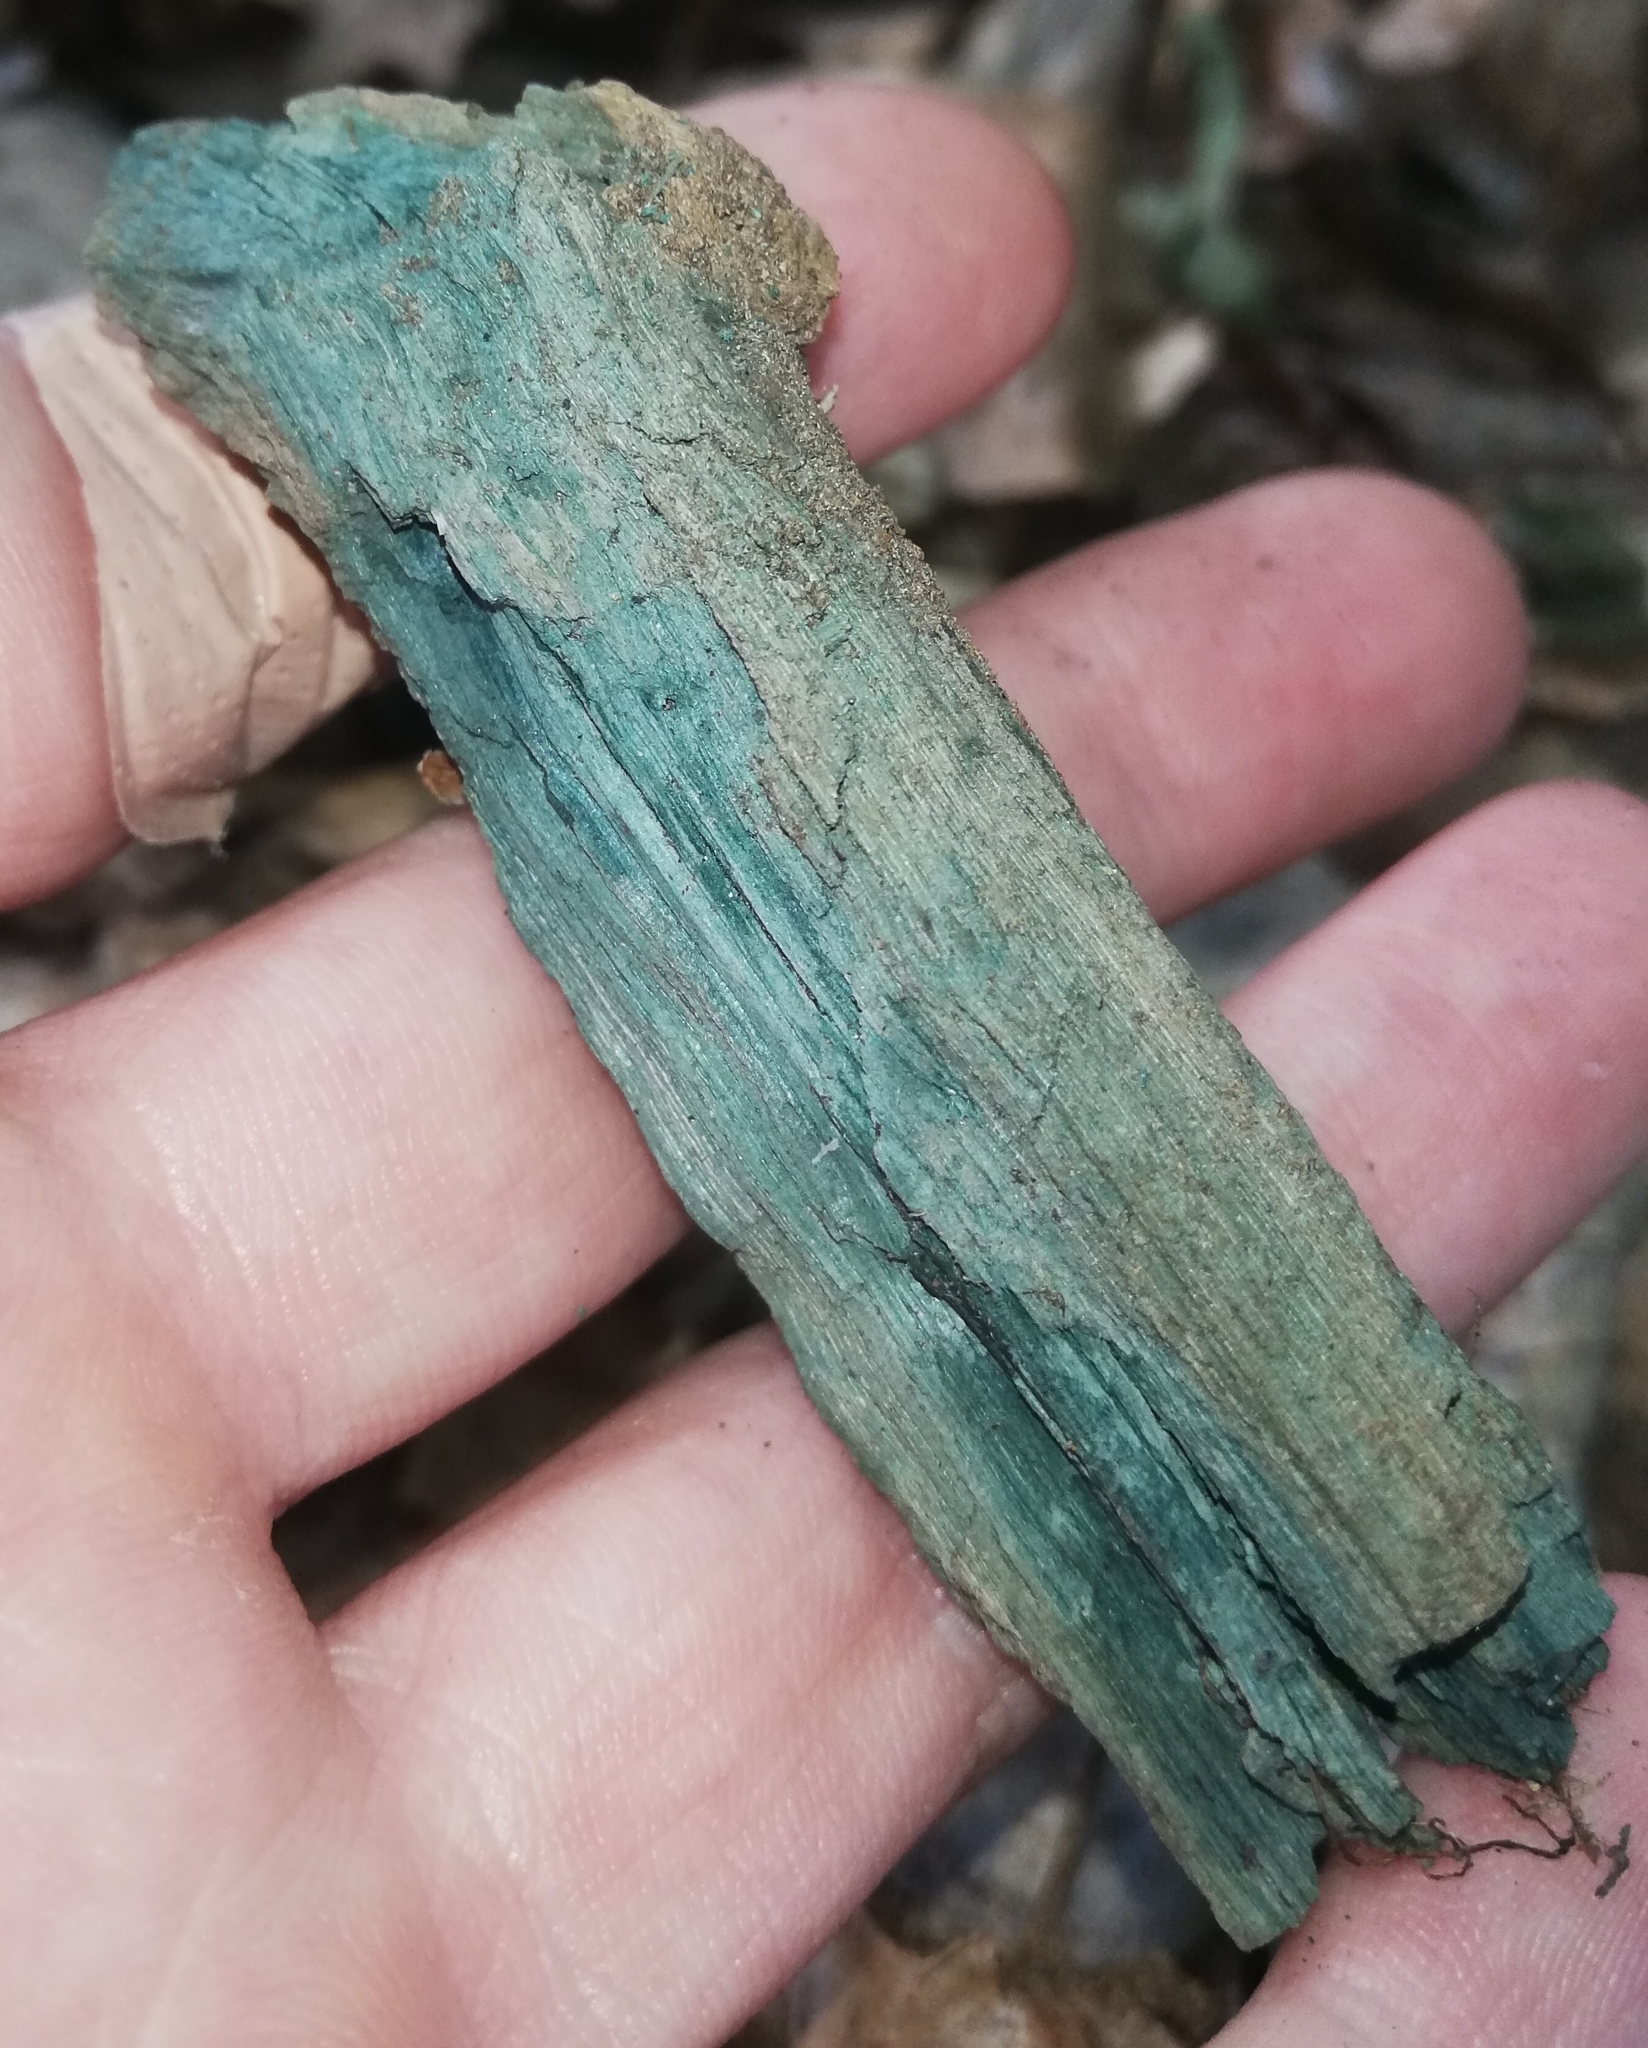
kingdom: Fungi
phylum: Ascomycota
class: Leotiomycetes
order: Helotiales
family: Chlorociboriaceae
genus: Chlorociboria
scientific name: Chlorociboria
